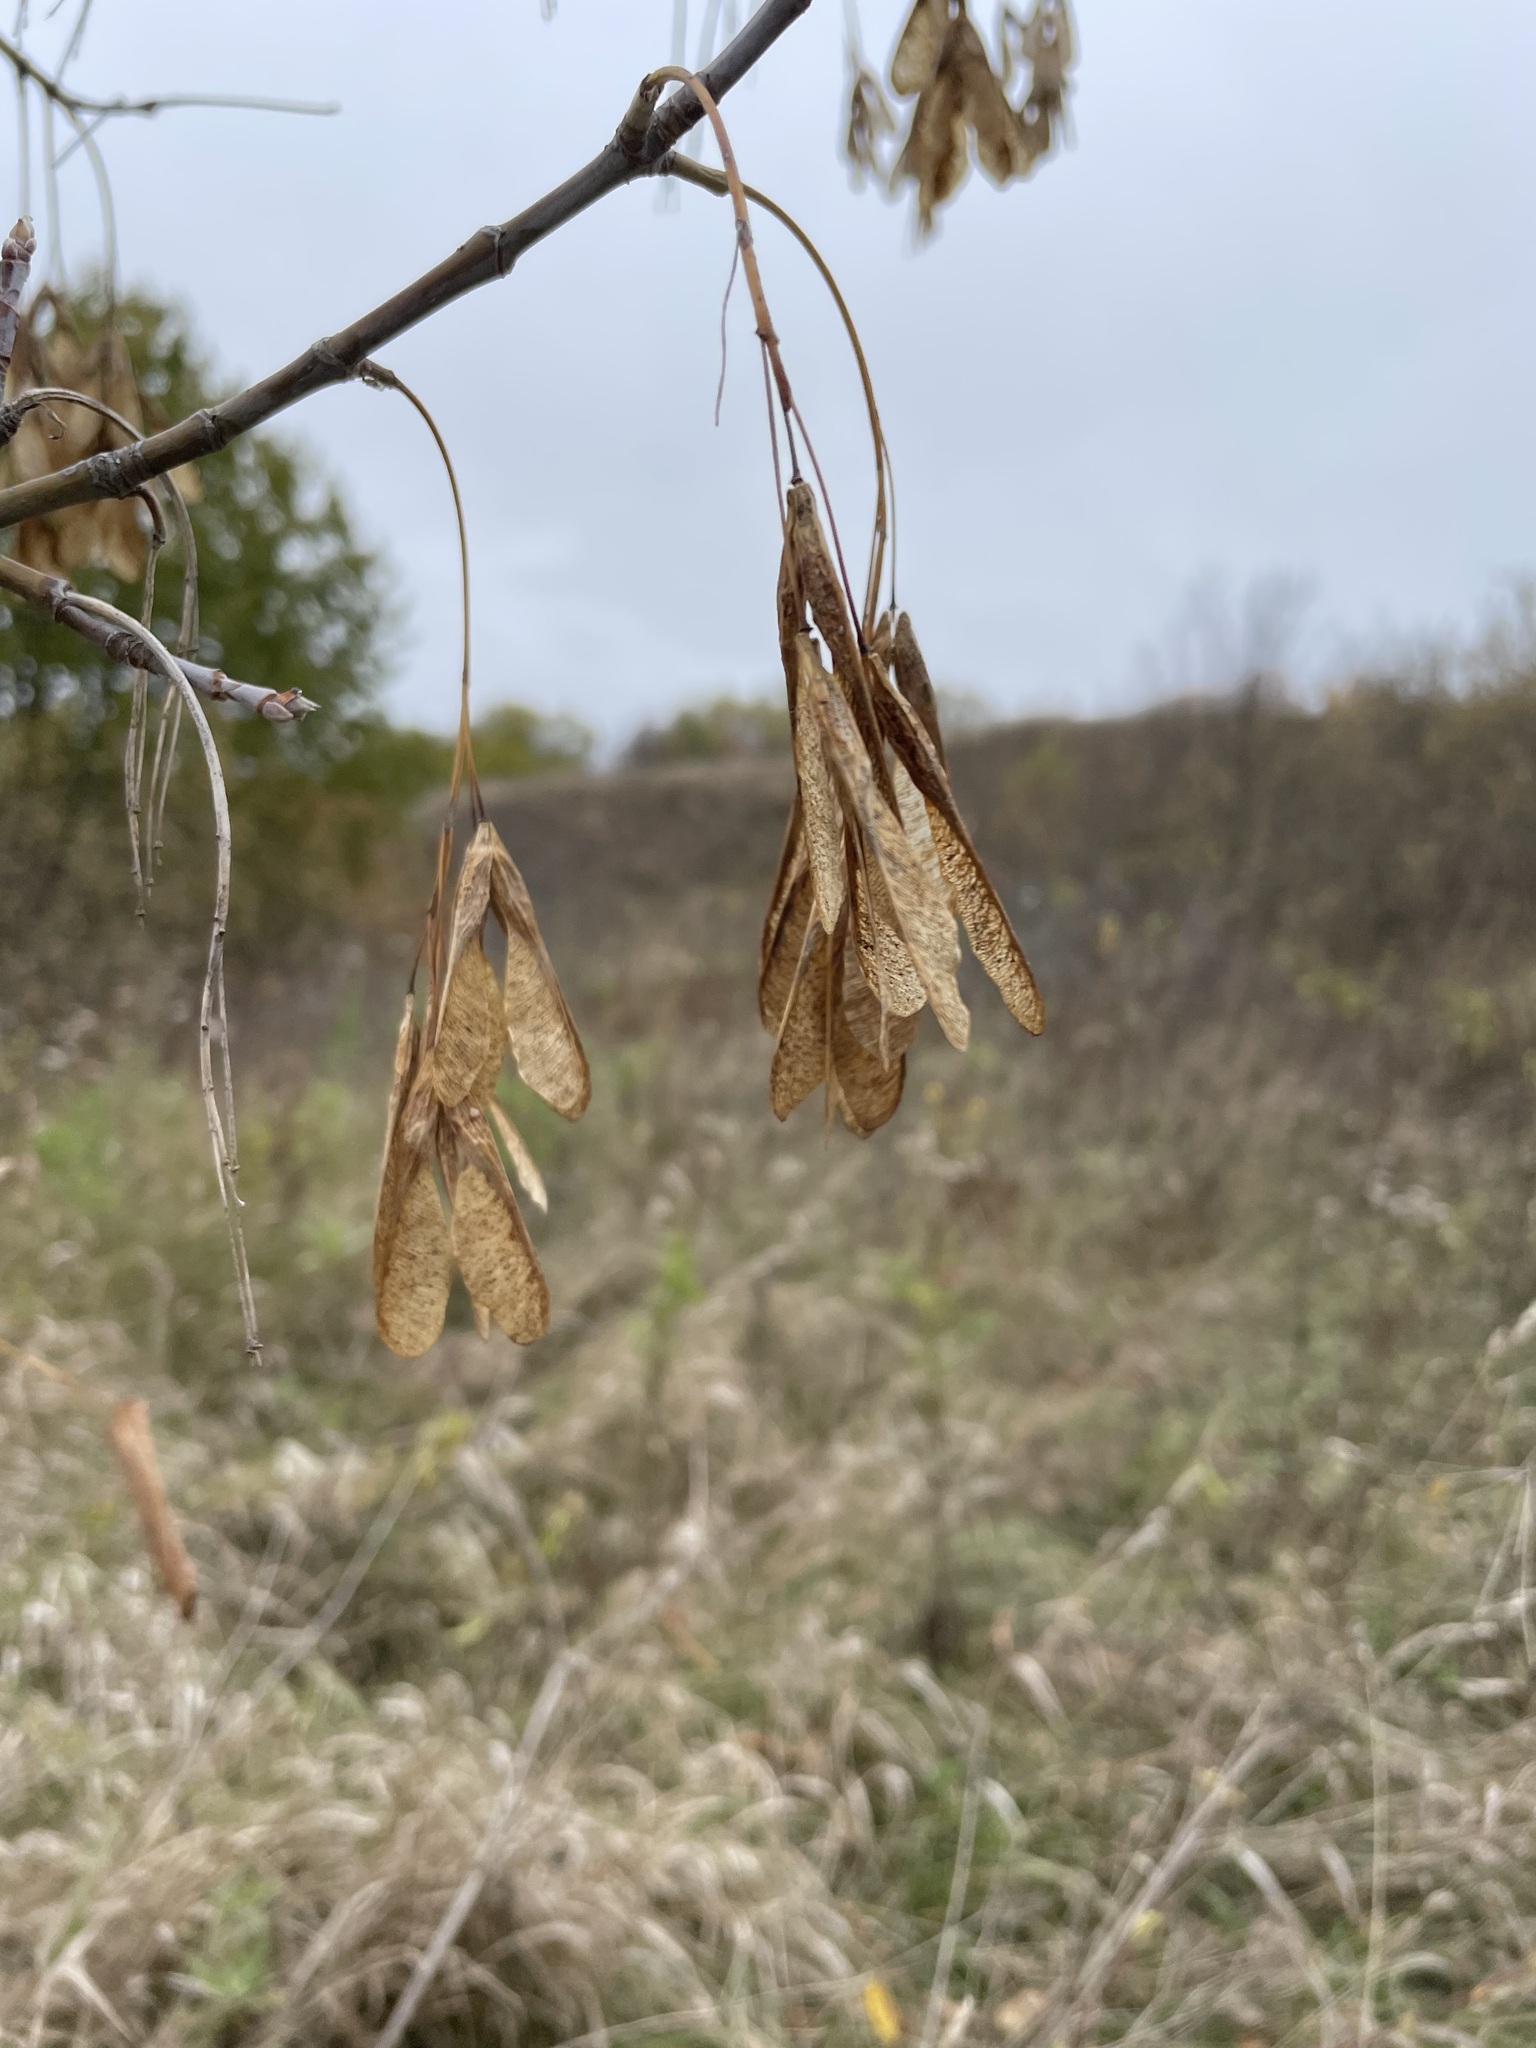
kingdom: Plantae
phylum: Tracheophyta
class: Magnoliopsida
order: Sapindales
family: Sapindaceae
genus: Acer
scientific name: Acer negundo
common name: Ashleaf maple
